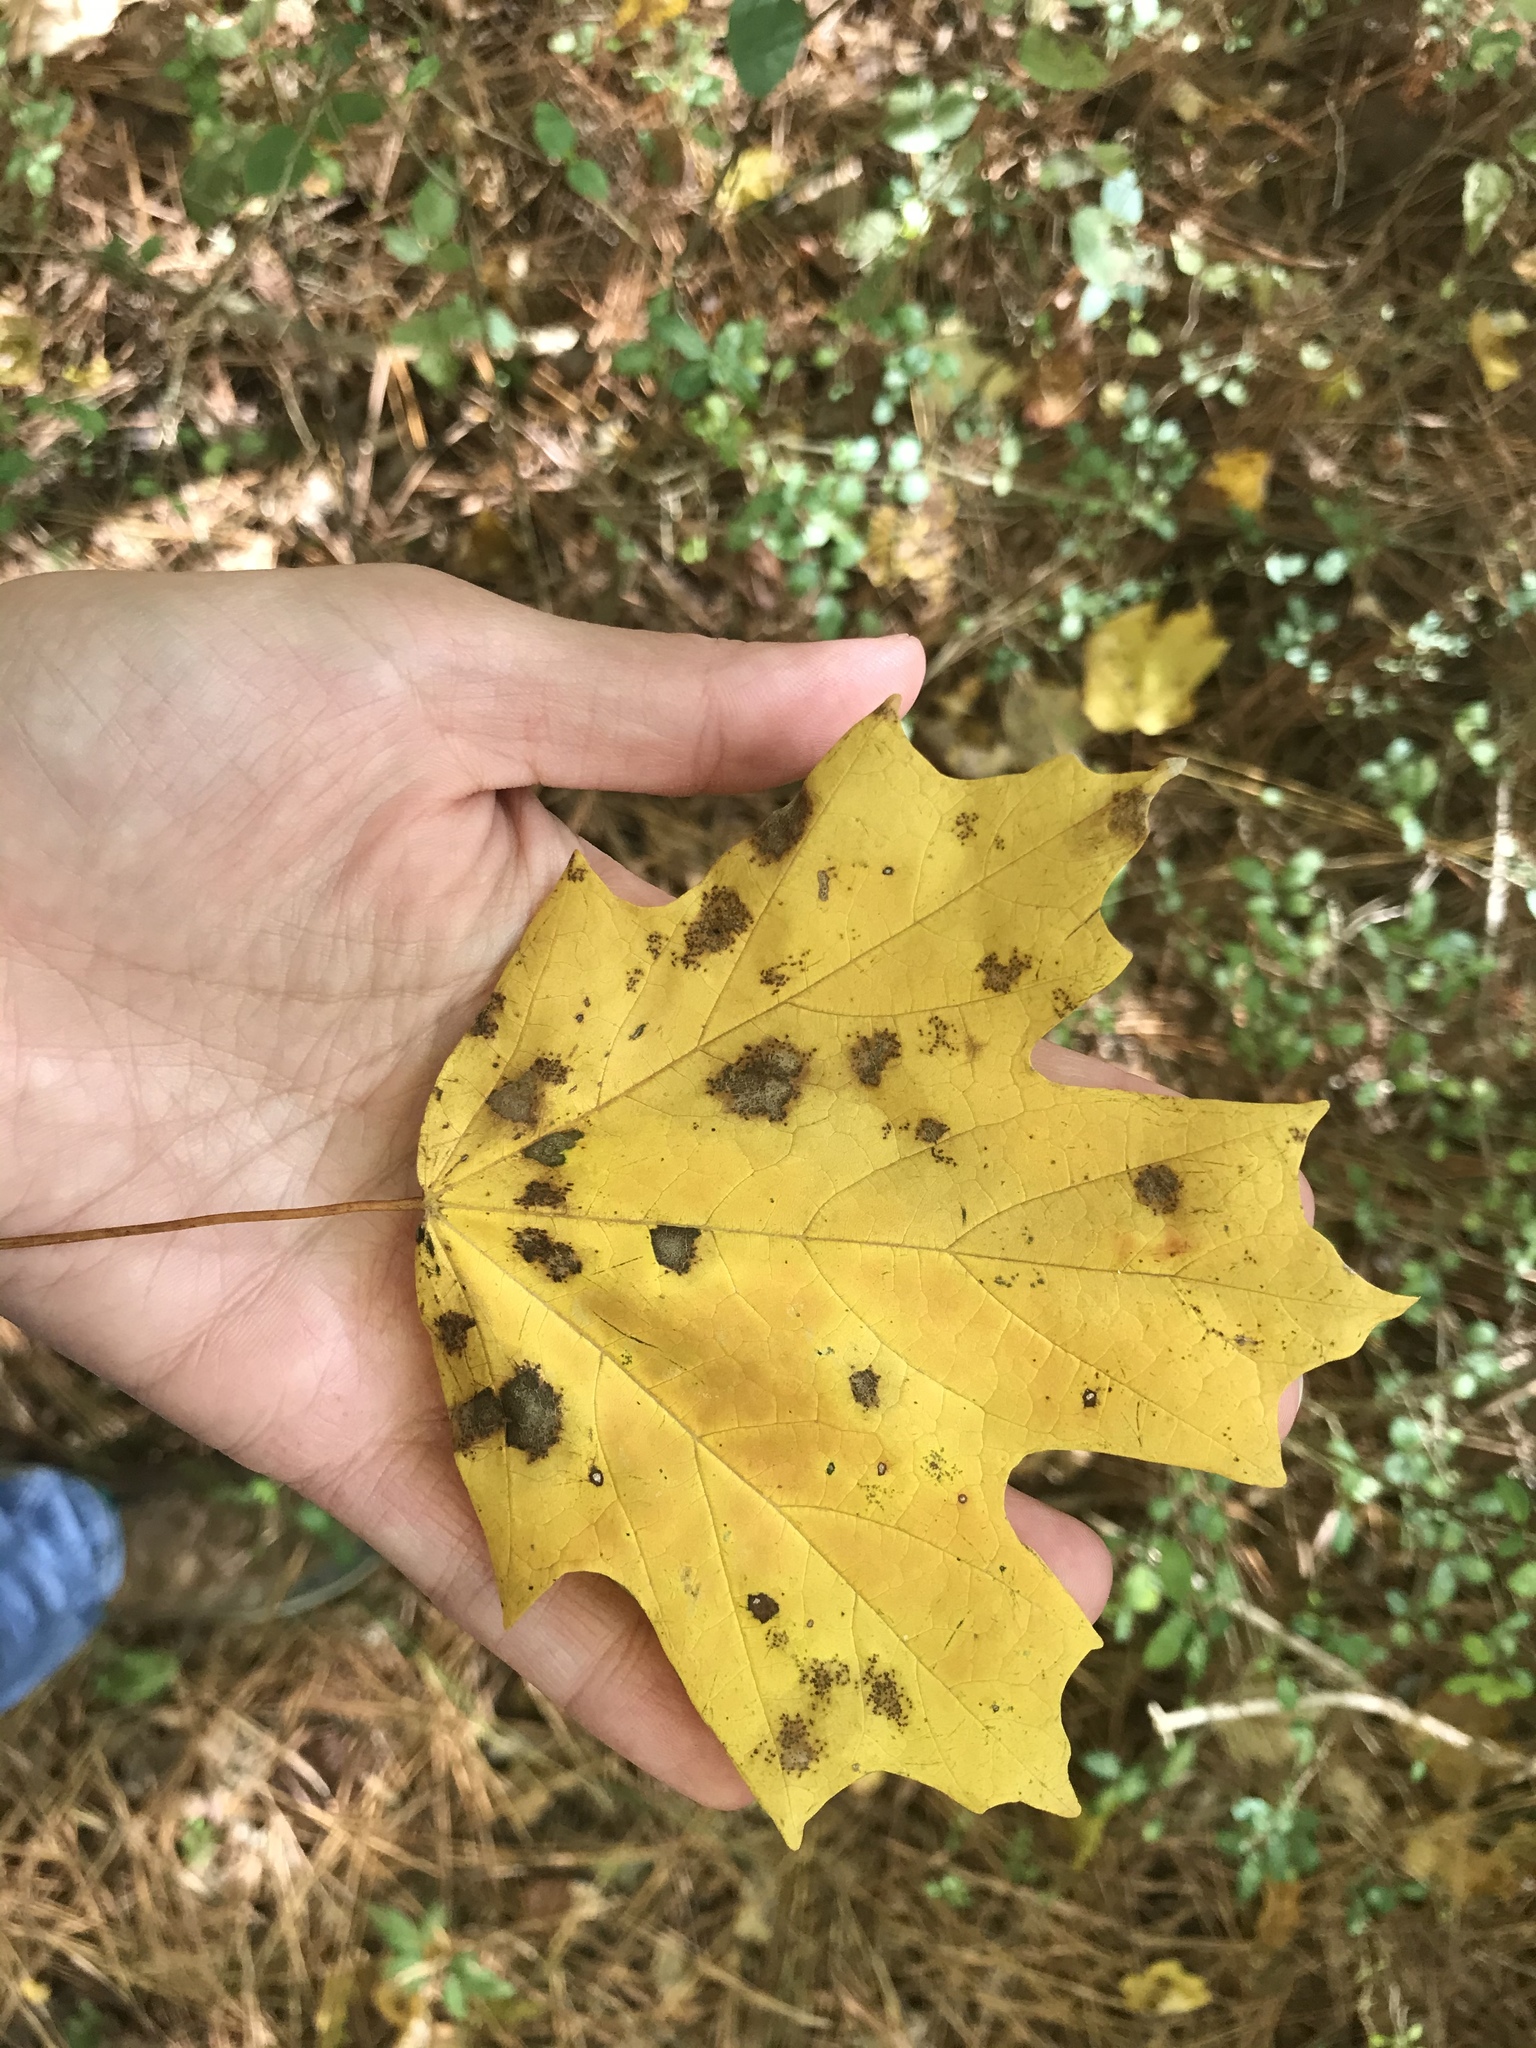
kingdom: Plantae
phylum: Tracheophyta
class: Magnoliopsida
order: Sapindales
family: Sapindaceae
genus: Acer
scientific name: Acer saccharum
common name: Sugar maple
